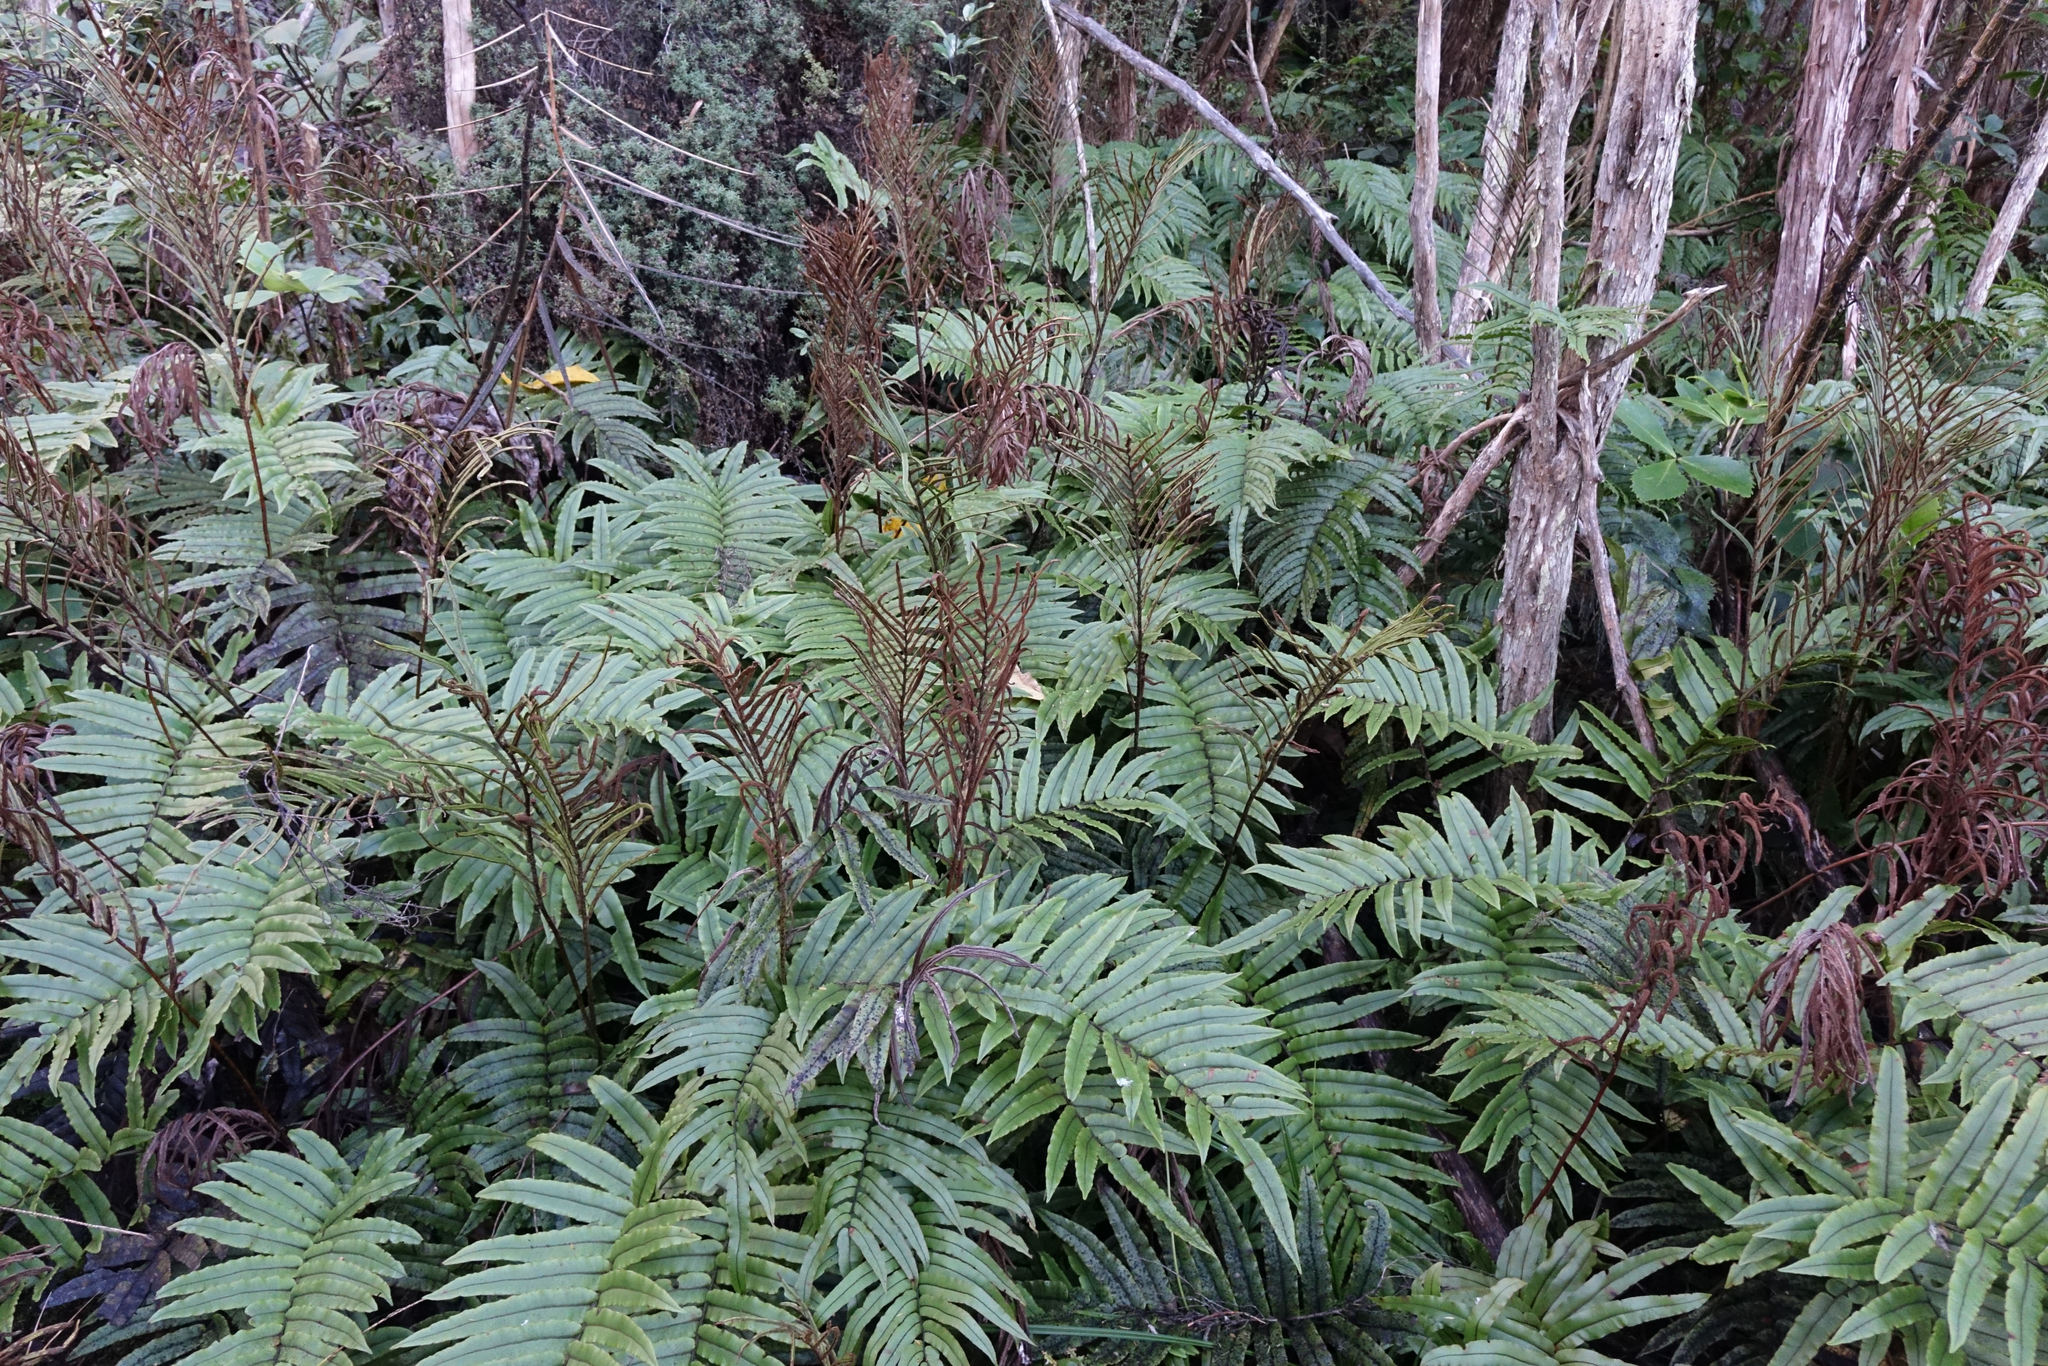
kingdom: Plantae
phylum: Tracheophyta
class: Polypodiopsida
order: Polypodiales
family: Blechnaceae
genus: Parablechnum
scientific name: Parablechnum montanum
